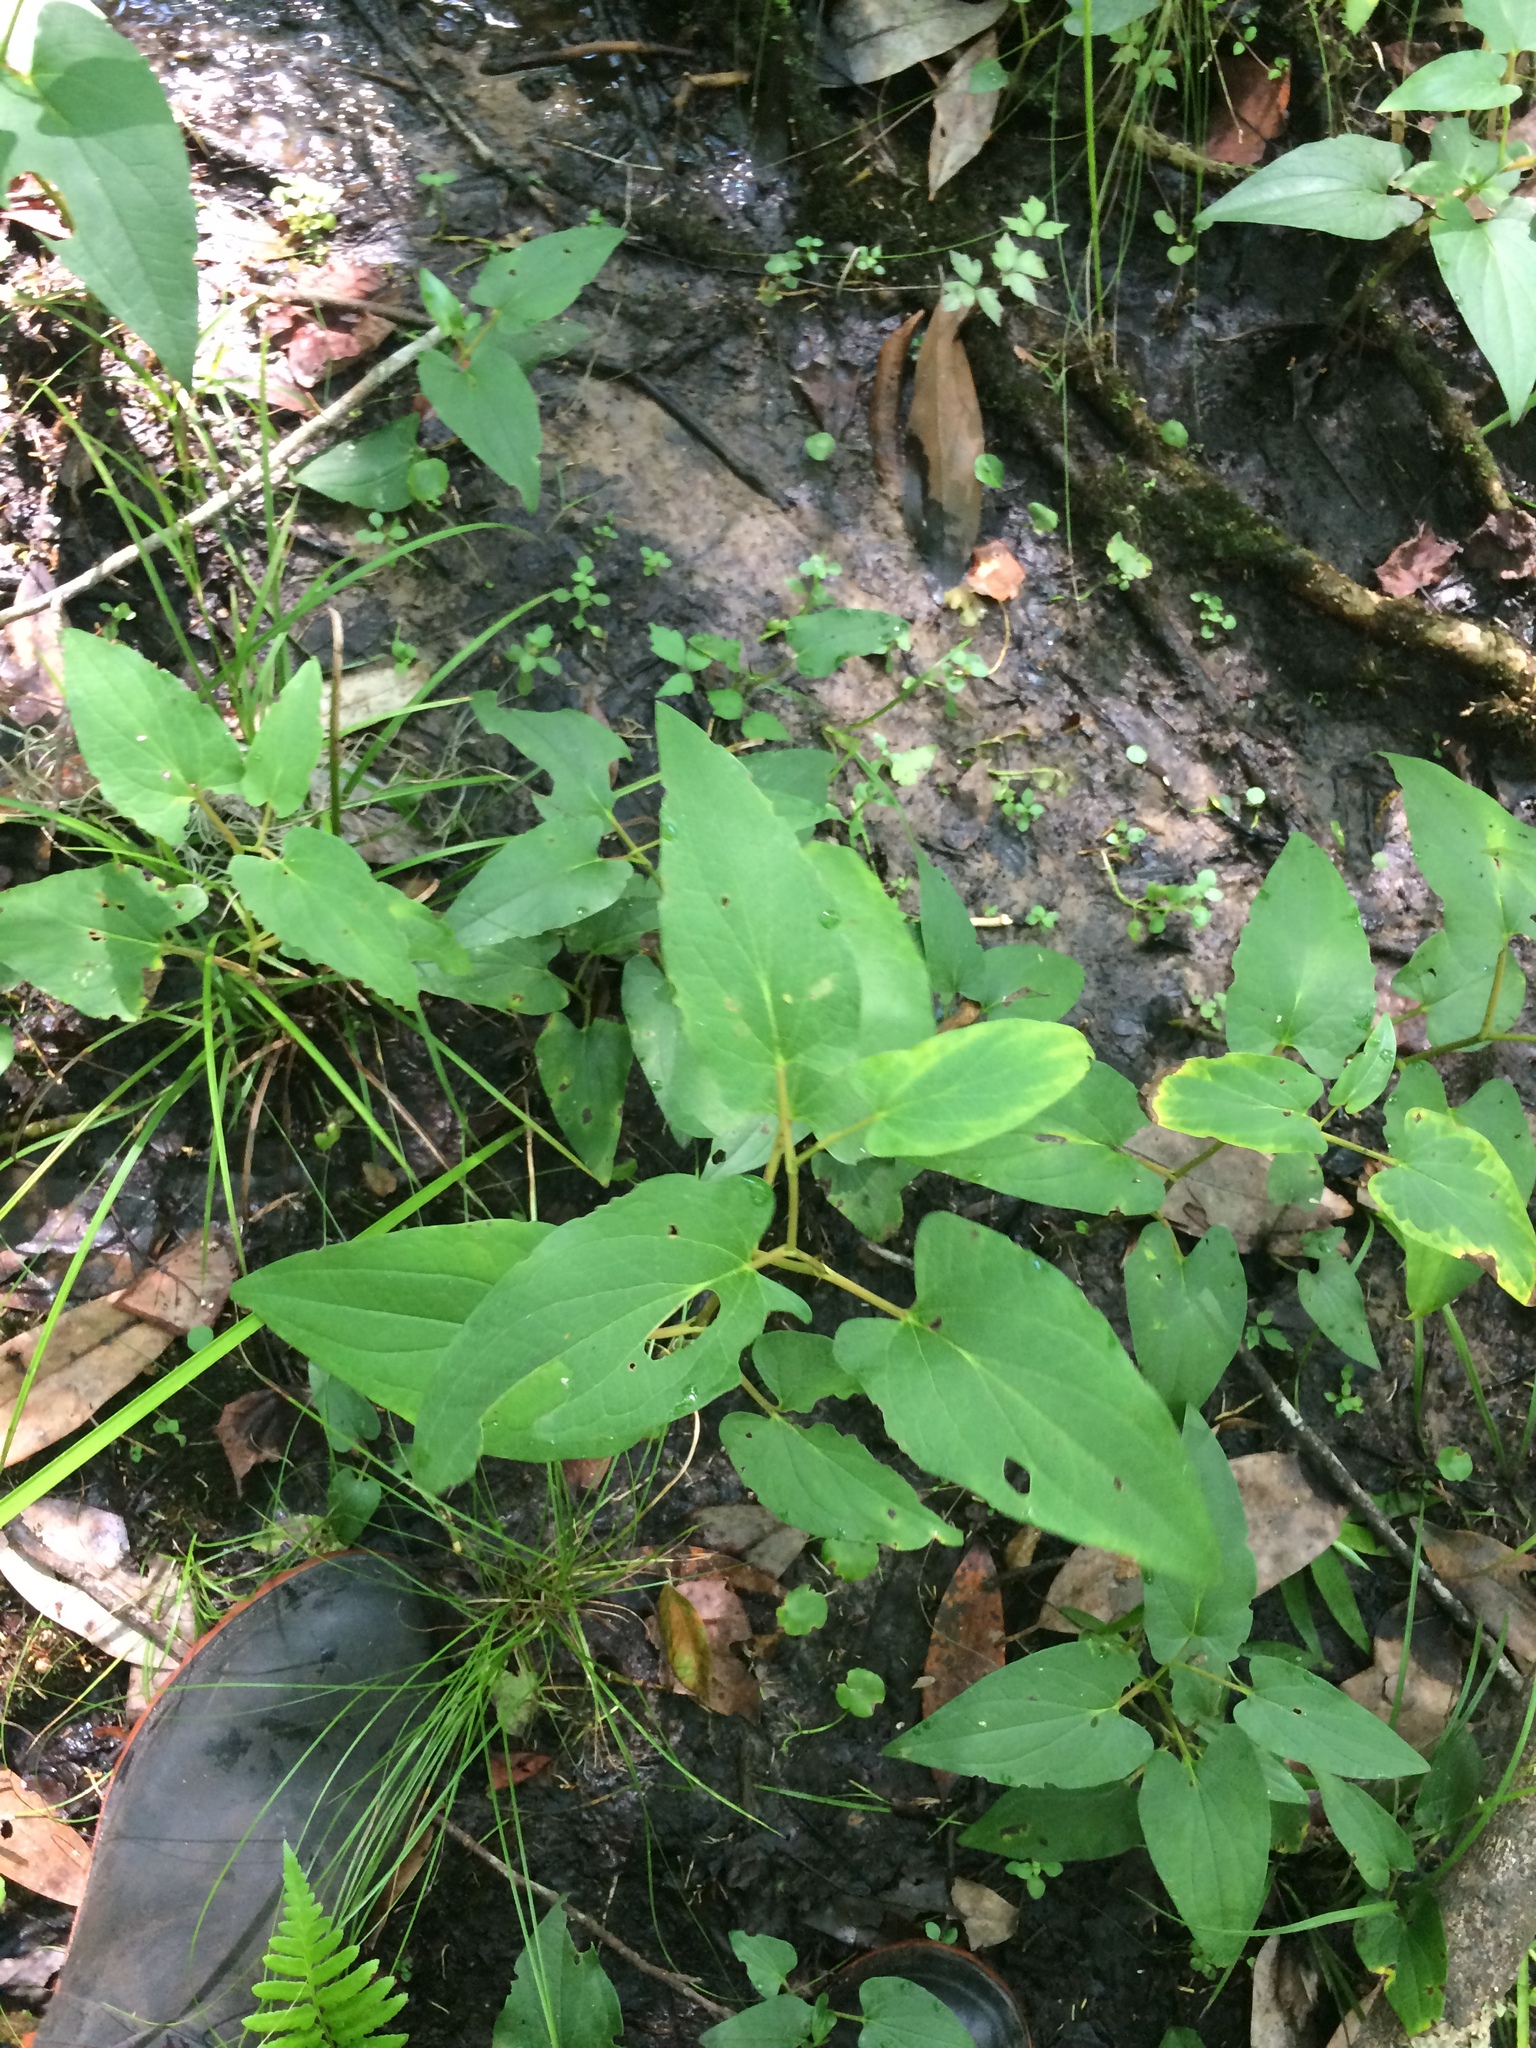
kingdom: Plantae
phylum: Tracheophyta
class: Magnoliopsida
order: Piperales
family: Saururaceae
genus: Saururus
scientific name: Saururus cernuus
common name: Lizard's-tail
